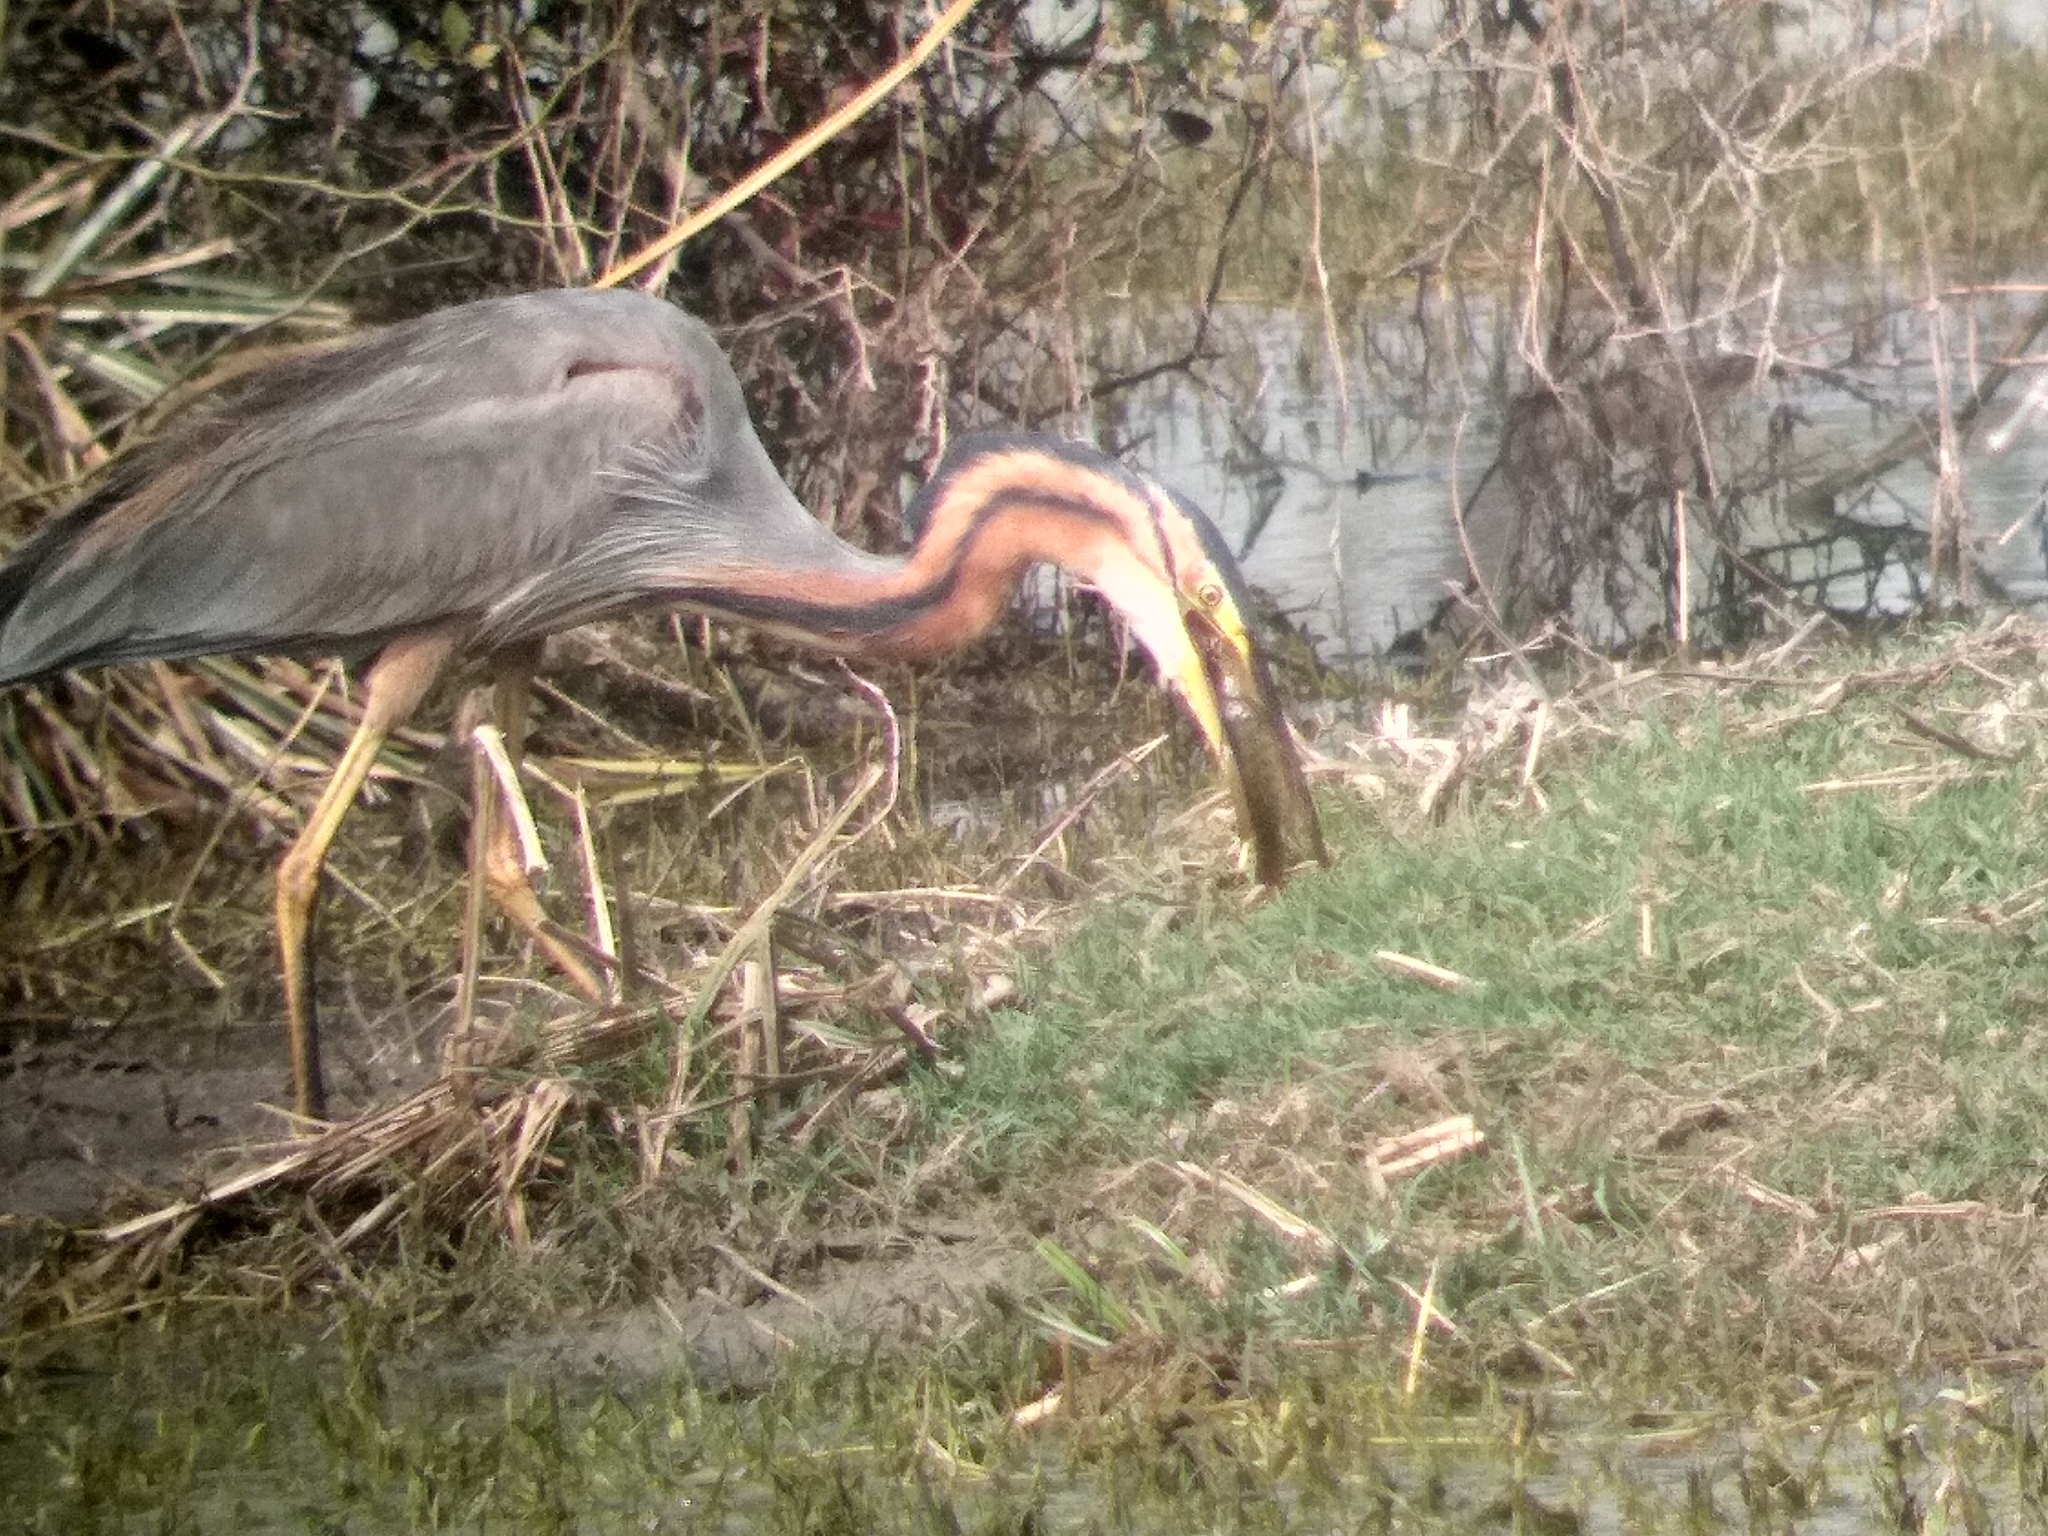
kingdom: Animalia
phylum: Chordata
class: Aves
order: Pelecaniformes
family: Ardeidae
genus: Ardea
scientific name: Ardea purpurea
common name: Purple heron
